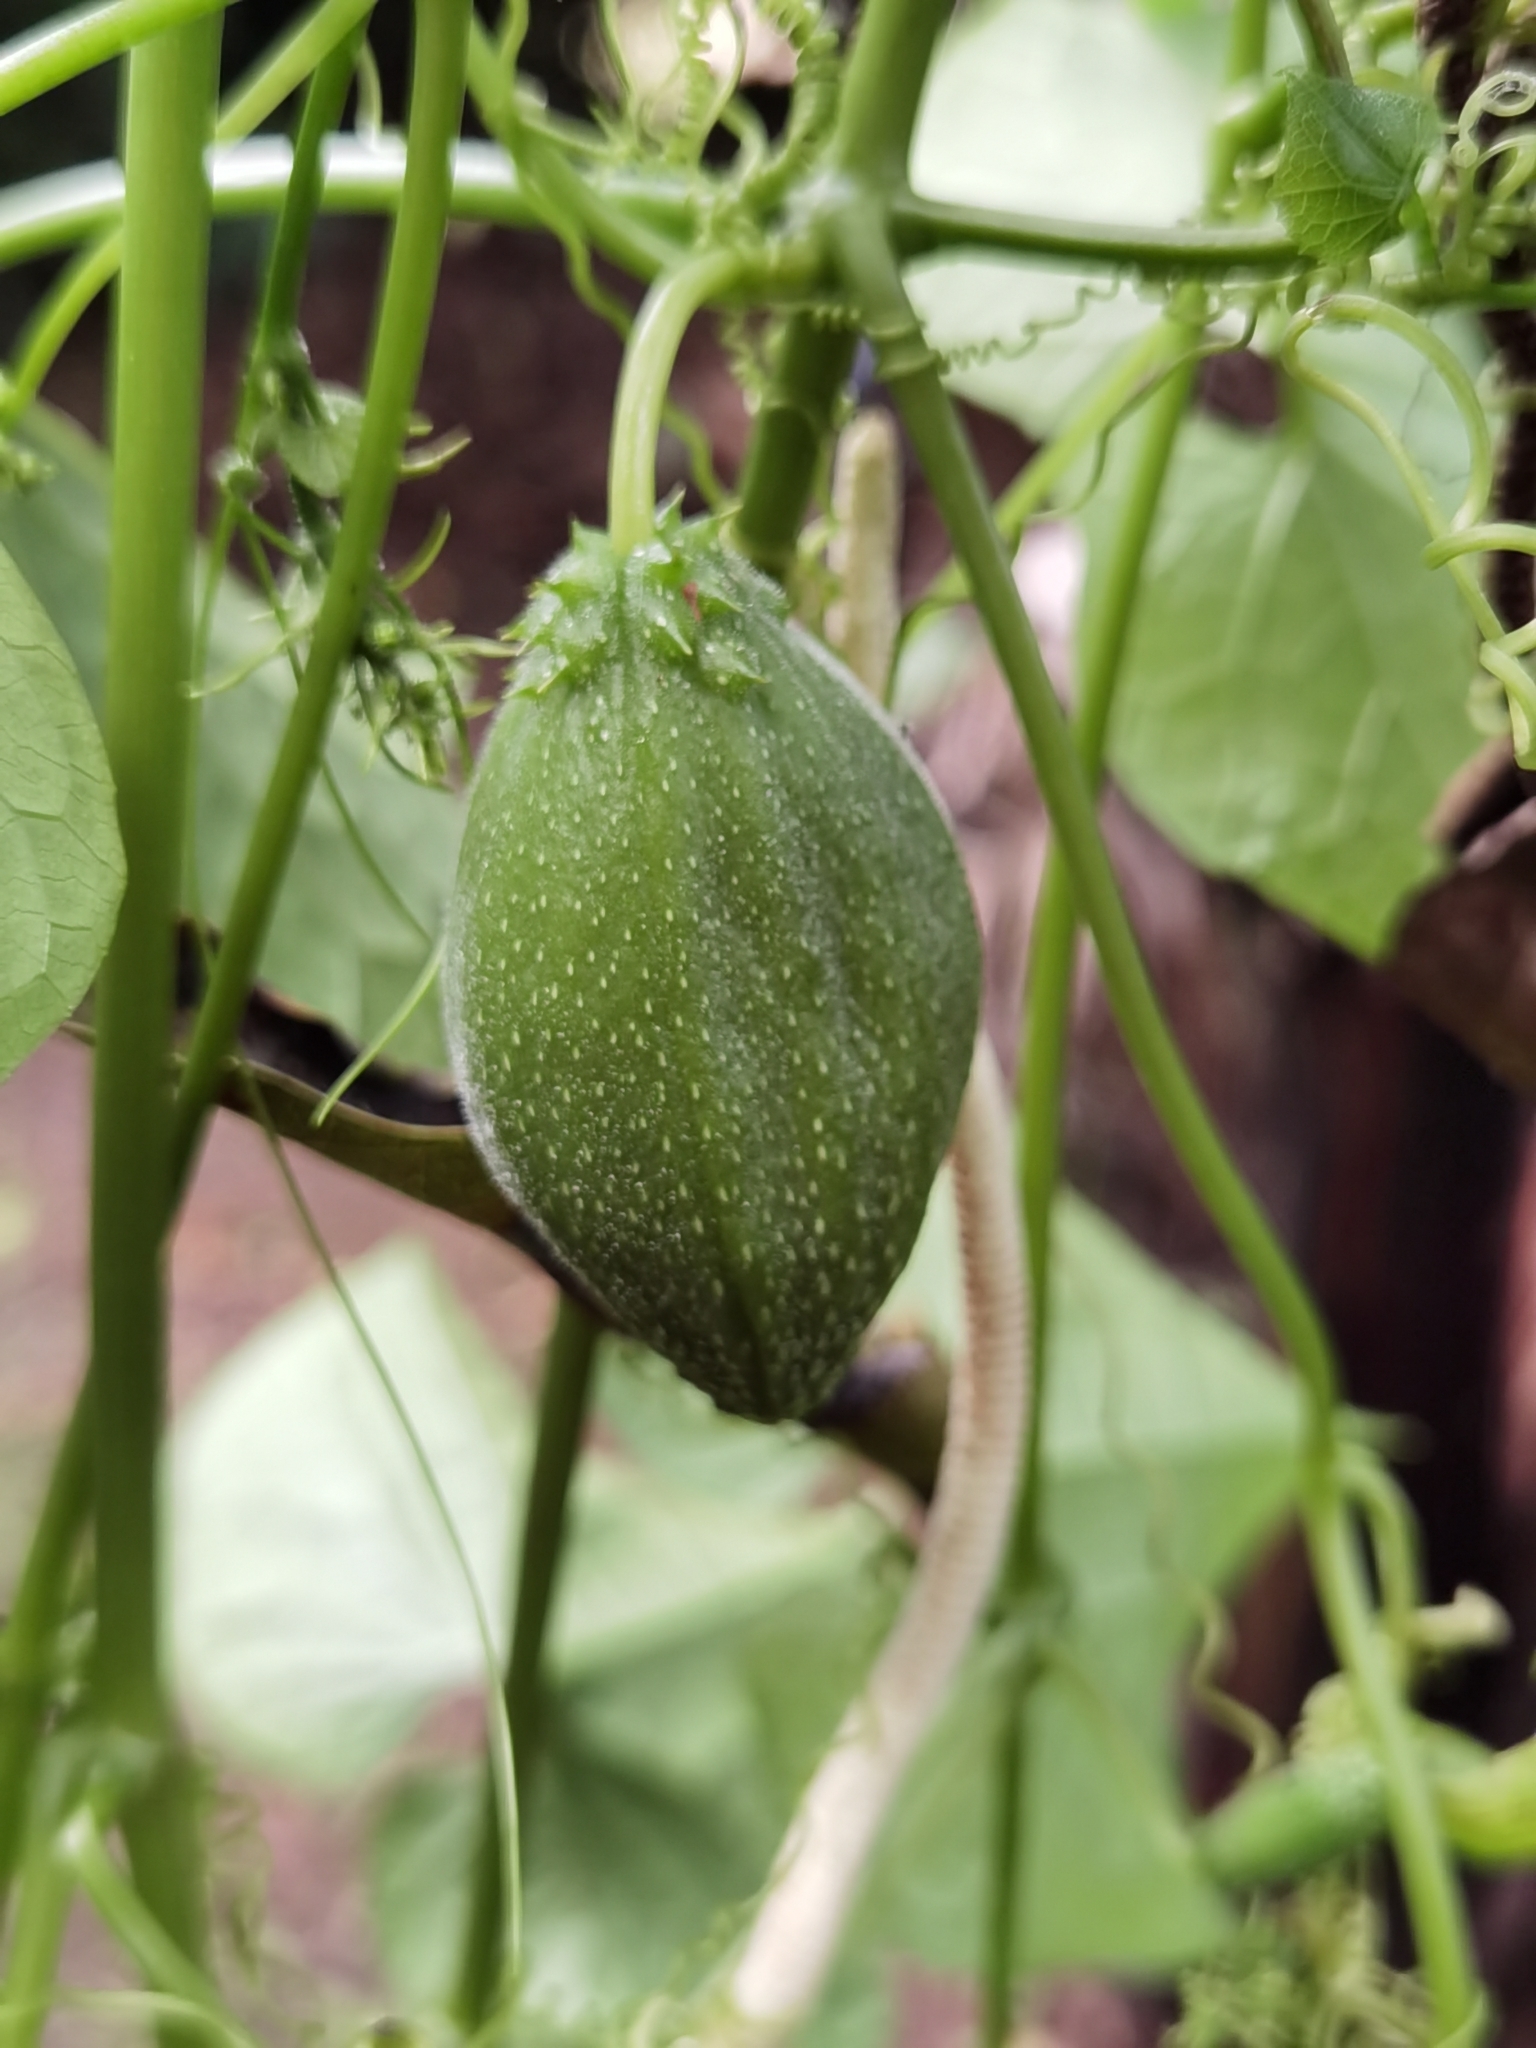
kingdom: Plantae
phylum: Tracheophyta
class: Magnoliopsida
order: Cucurbitales
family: Cucurbitaceae
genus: Frantzia
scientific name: Frantzia tacaco
